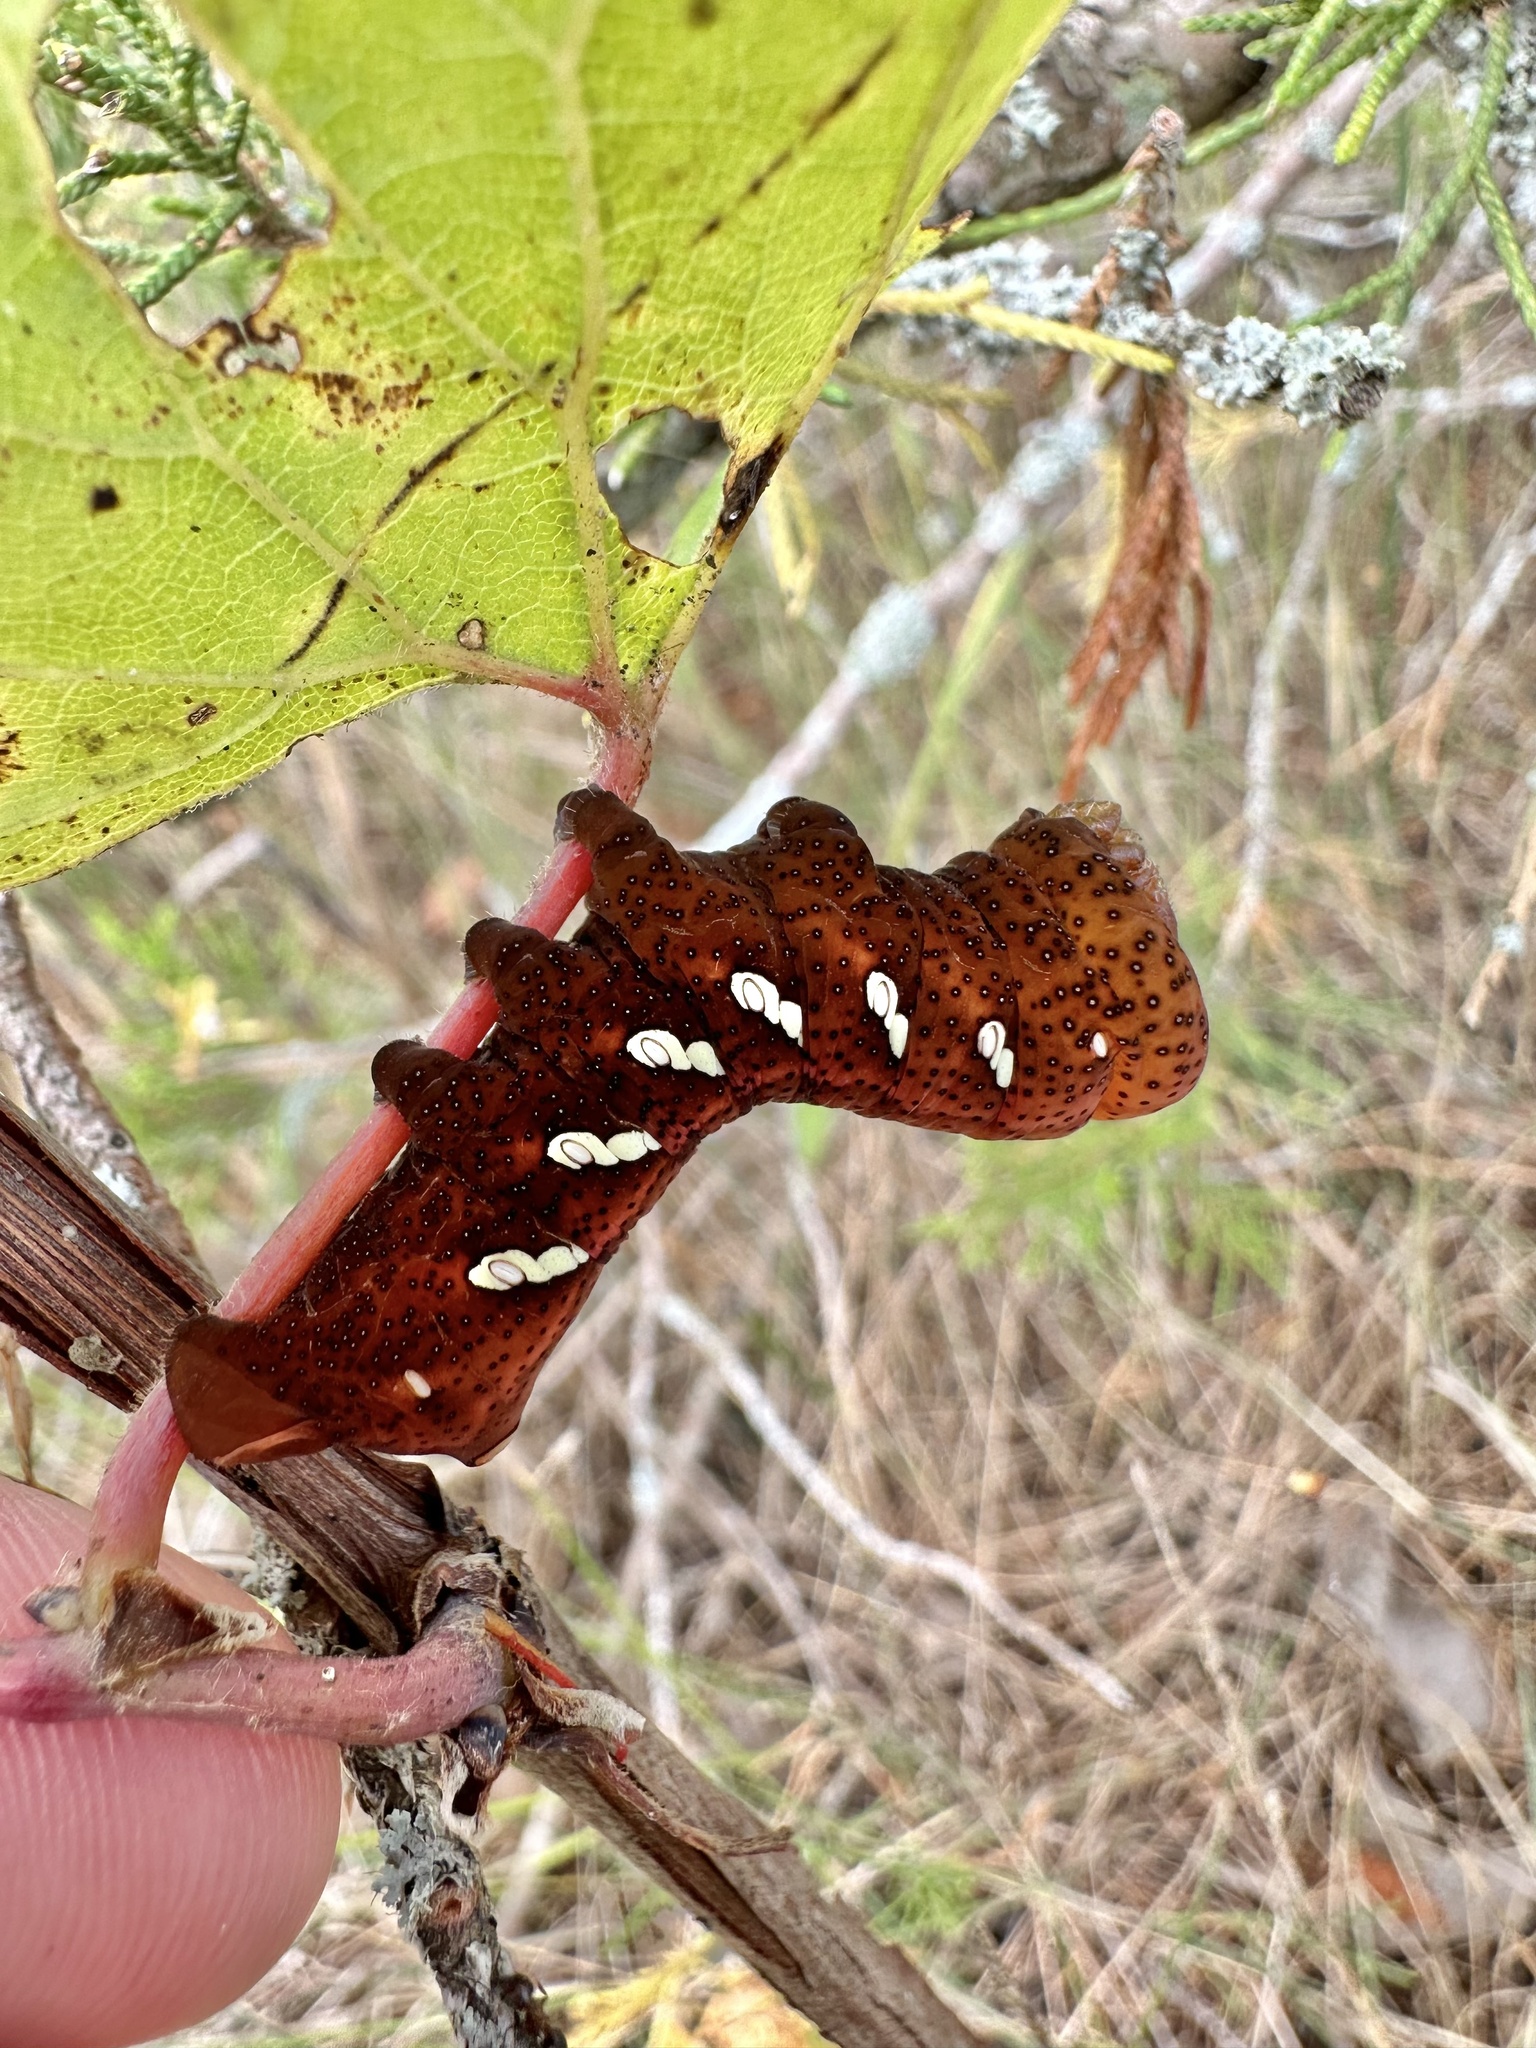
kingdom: Animalia
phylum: Arthropoda
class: Insecta
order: Lepidoptera
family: Sphingidae
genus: Eumorpha
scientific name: Eumorpha achemon
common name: Achemon sphinx
